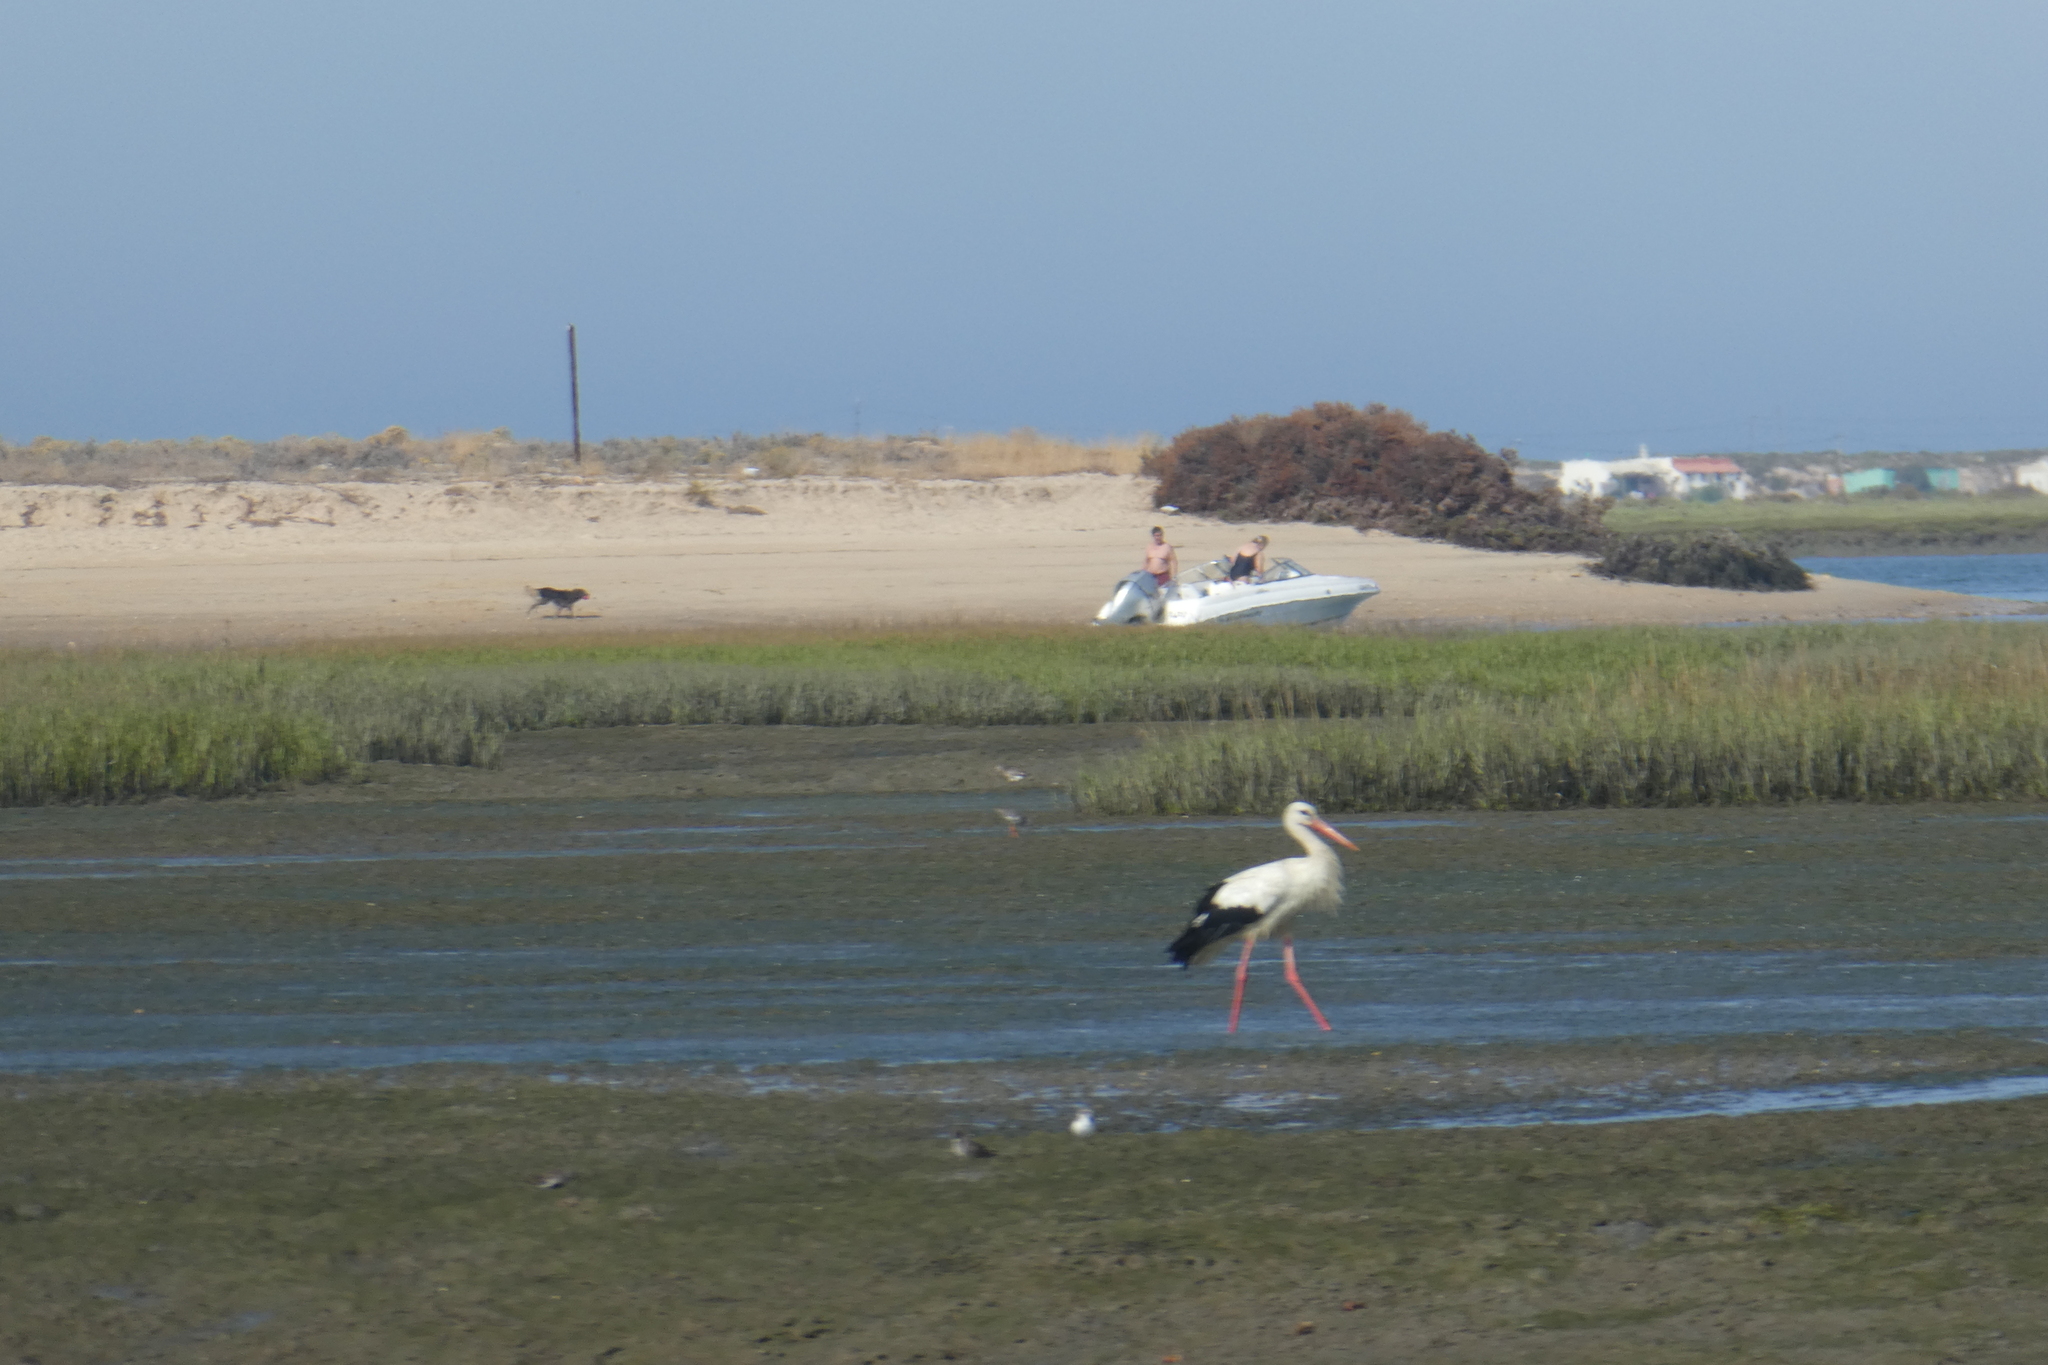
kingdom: Animalia
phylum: Chordata
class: Aves
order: Ciconiiformes
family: Ciconiidae
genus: Ciconia
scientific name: Ciconia ciconia
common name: White stork
